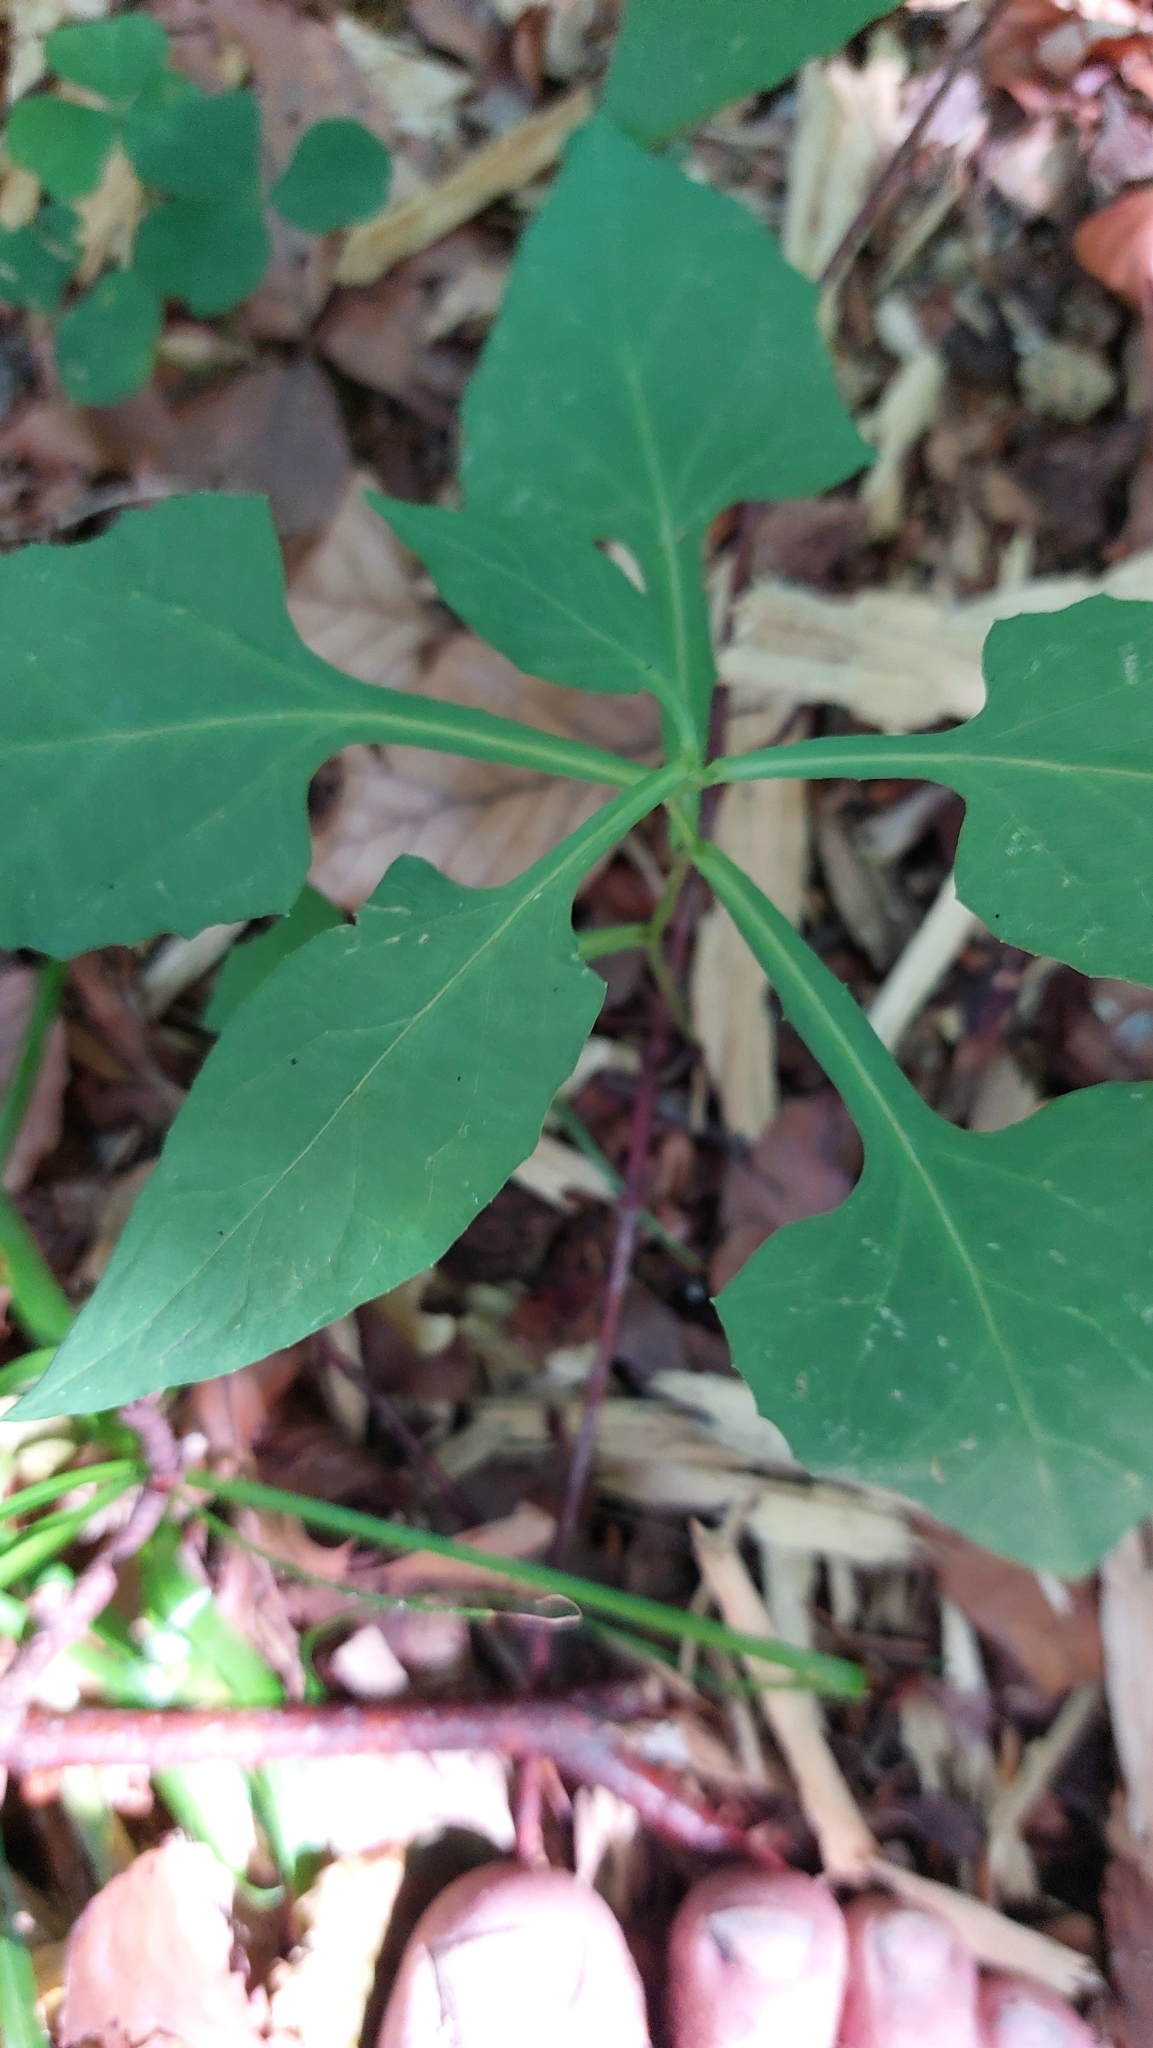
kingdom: Plantae
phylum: Tracheophyta
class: Magnoliopsida
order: Asterales
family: Asteraceae
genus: Prenanthes
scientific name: Prenanthes purpurea
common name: Purple lettuce
